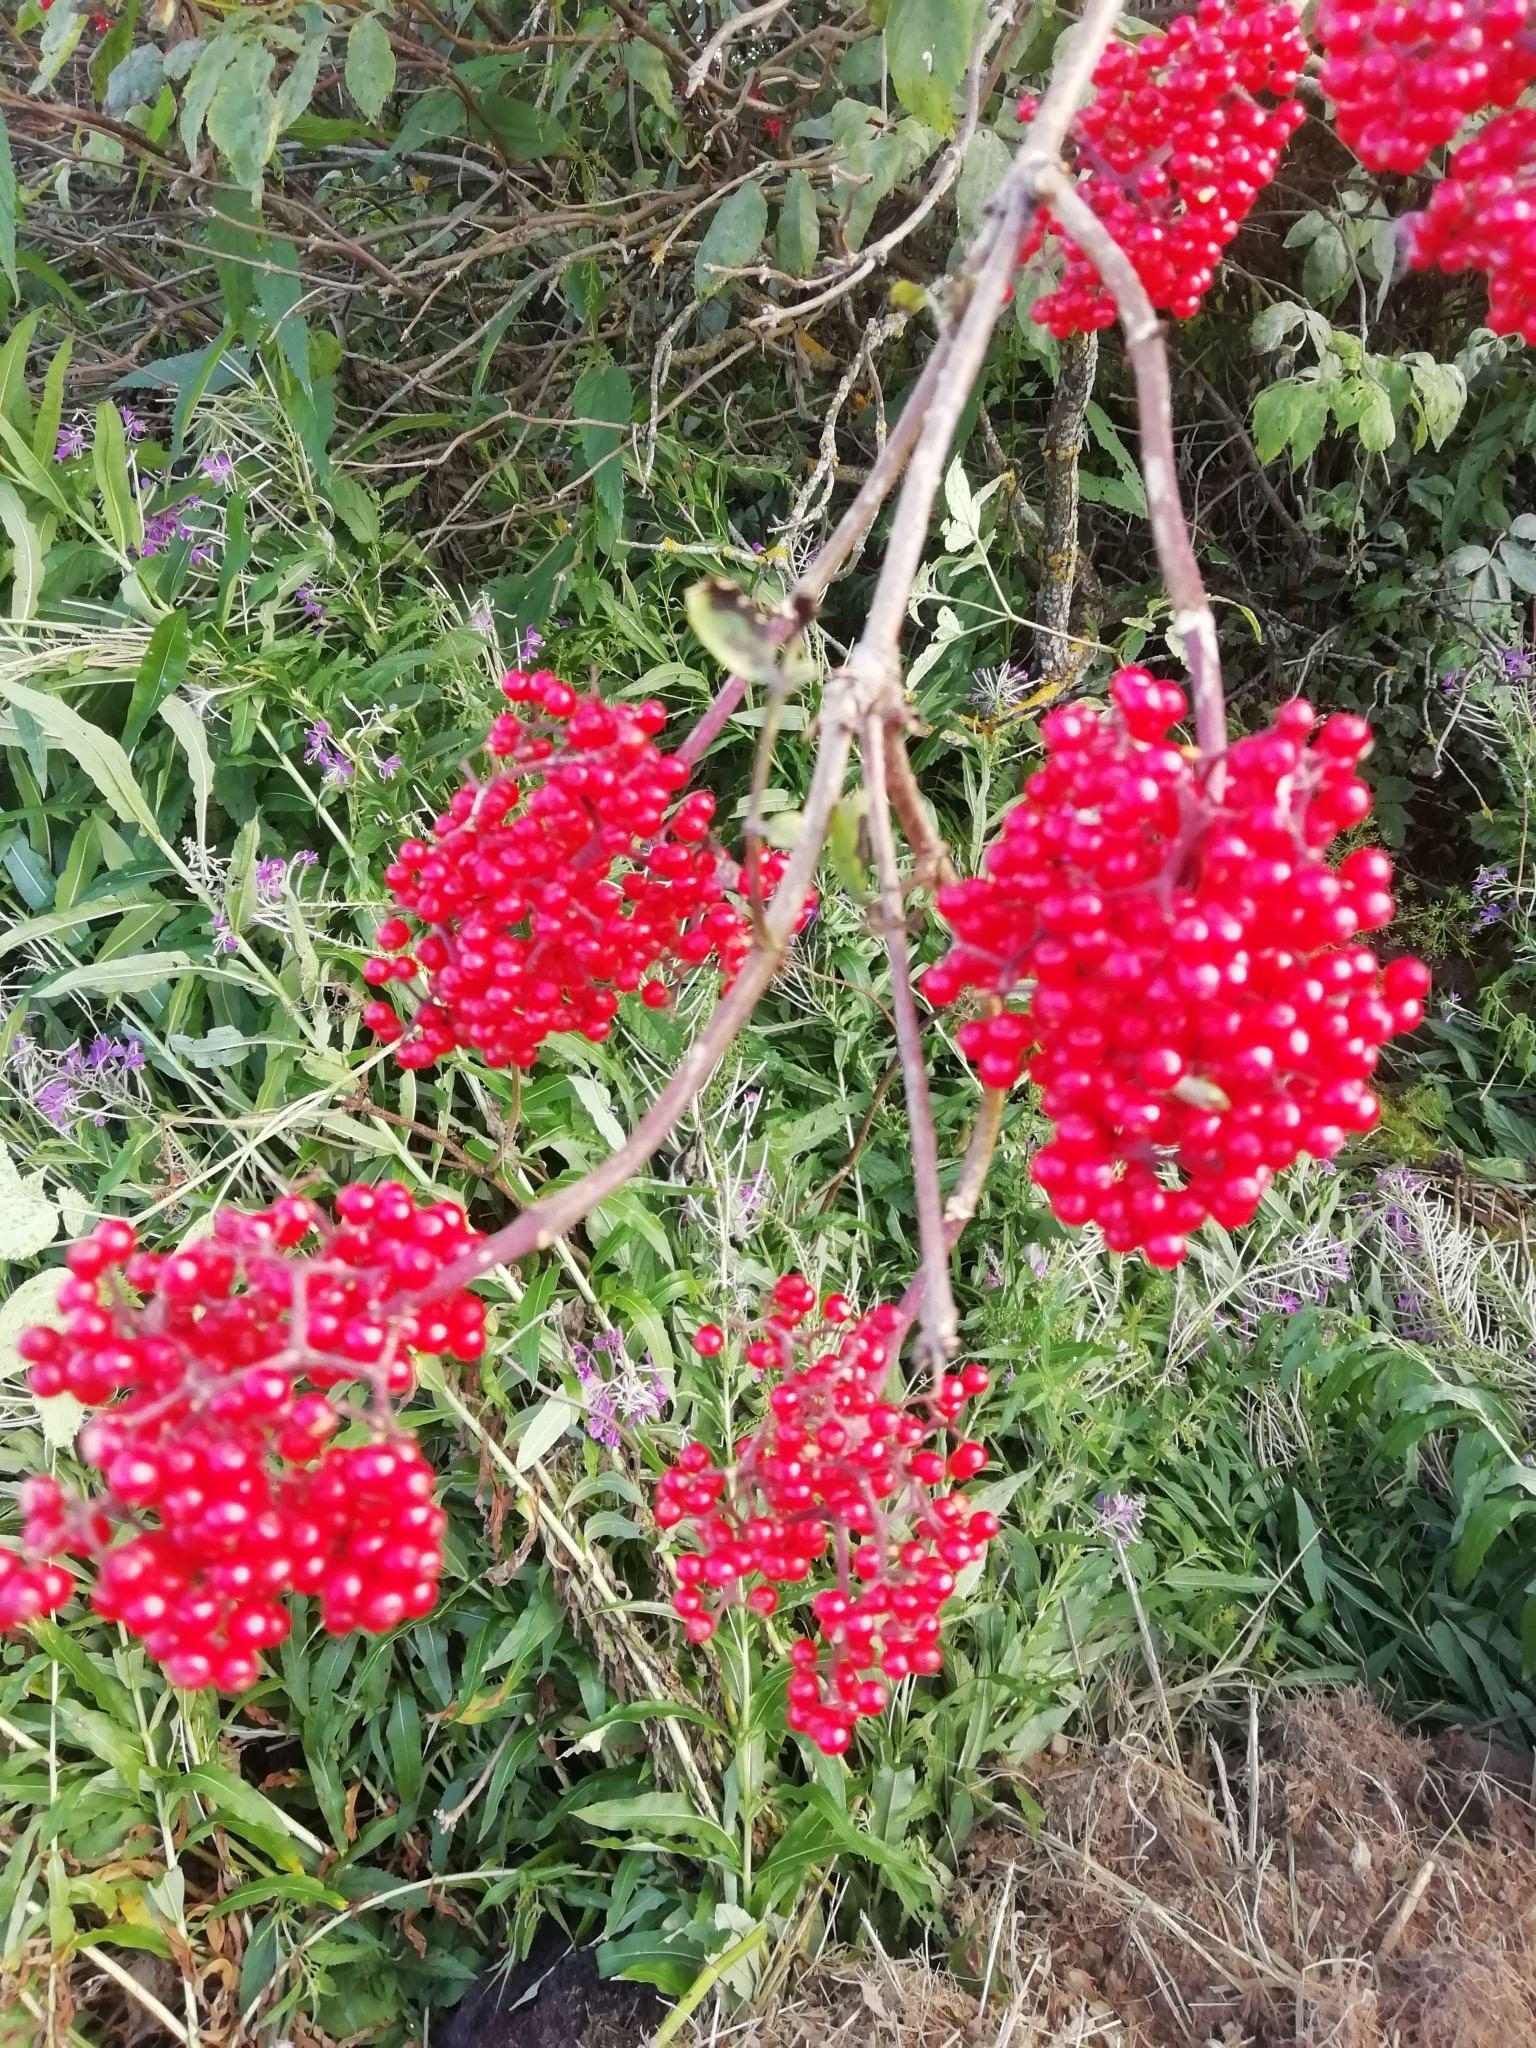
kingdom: Plantae
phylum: Tracheophyta
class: Magnoliopsida
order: Dipsacales
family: Viburnaceae
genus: Sambucus
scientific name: Sambucus racemosa
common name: Red-berried elder
